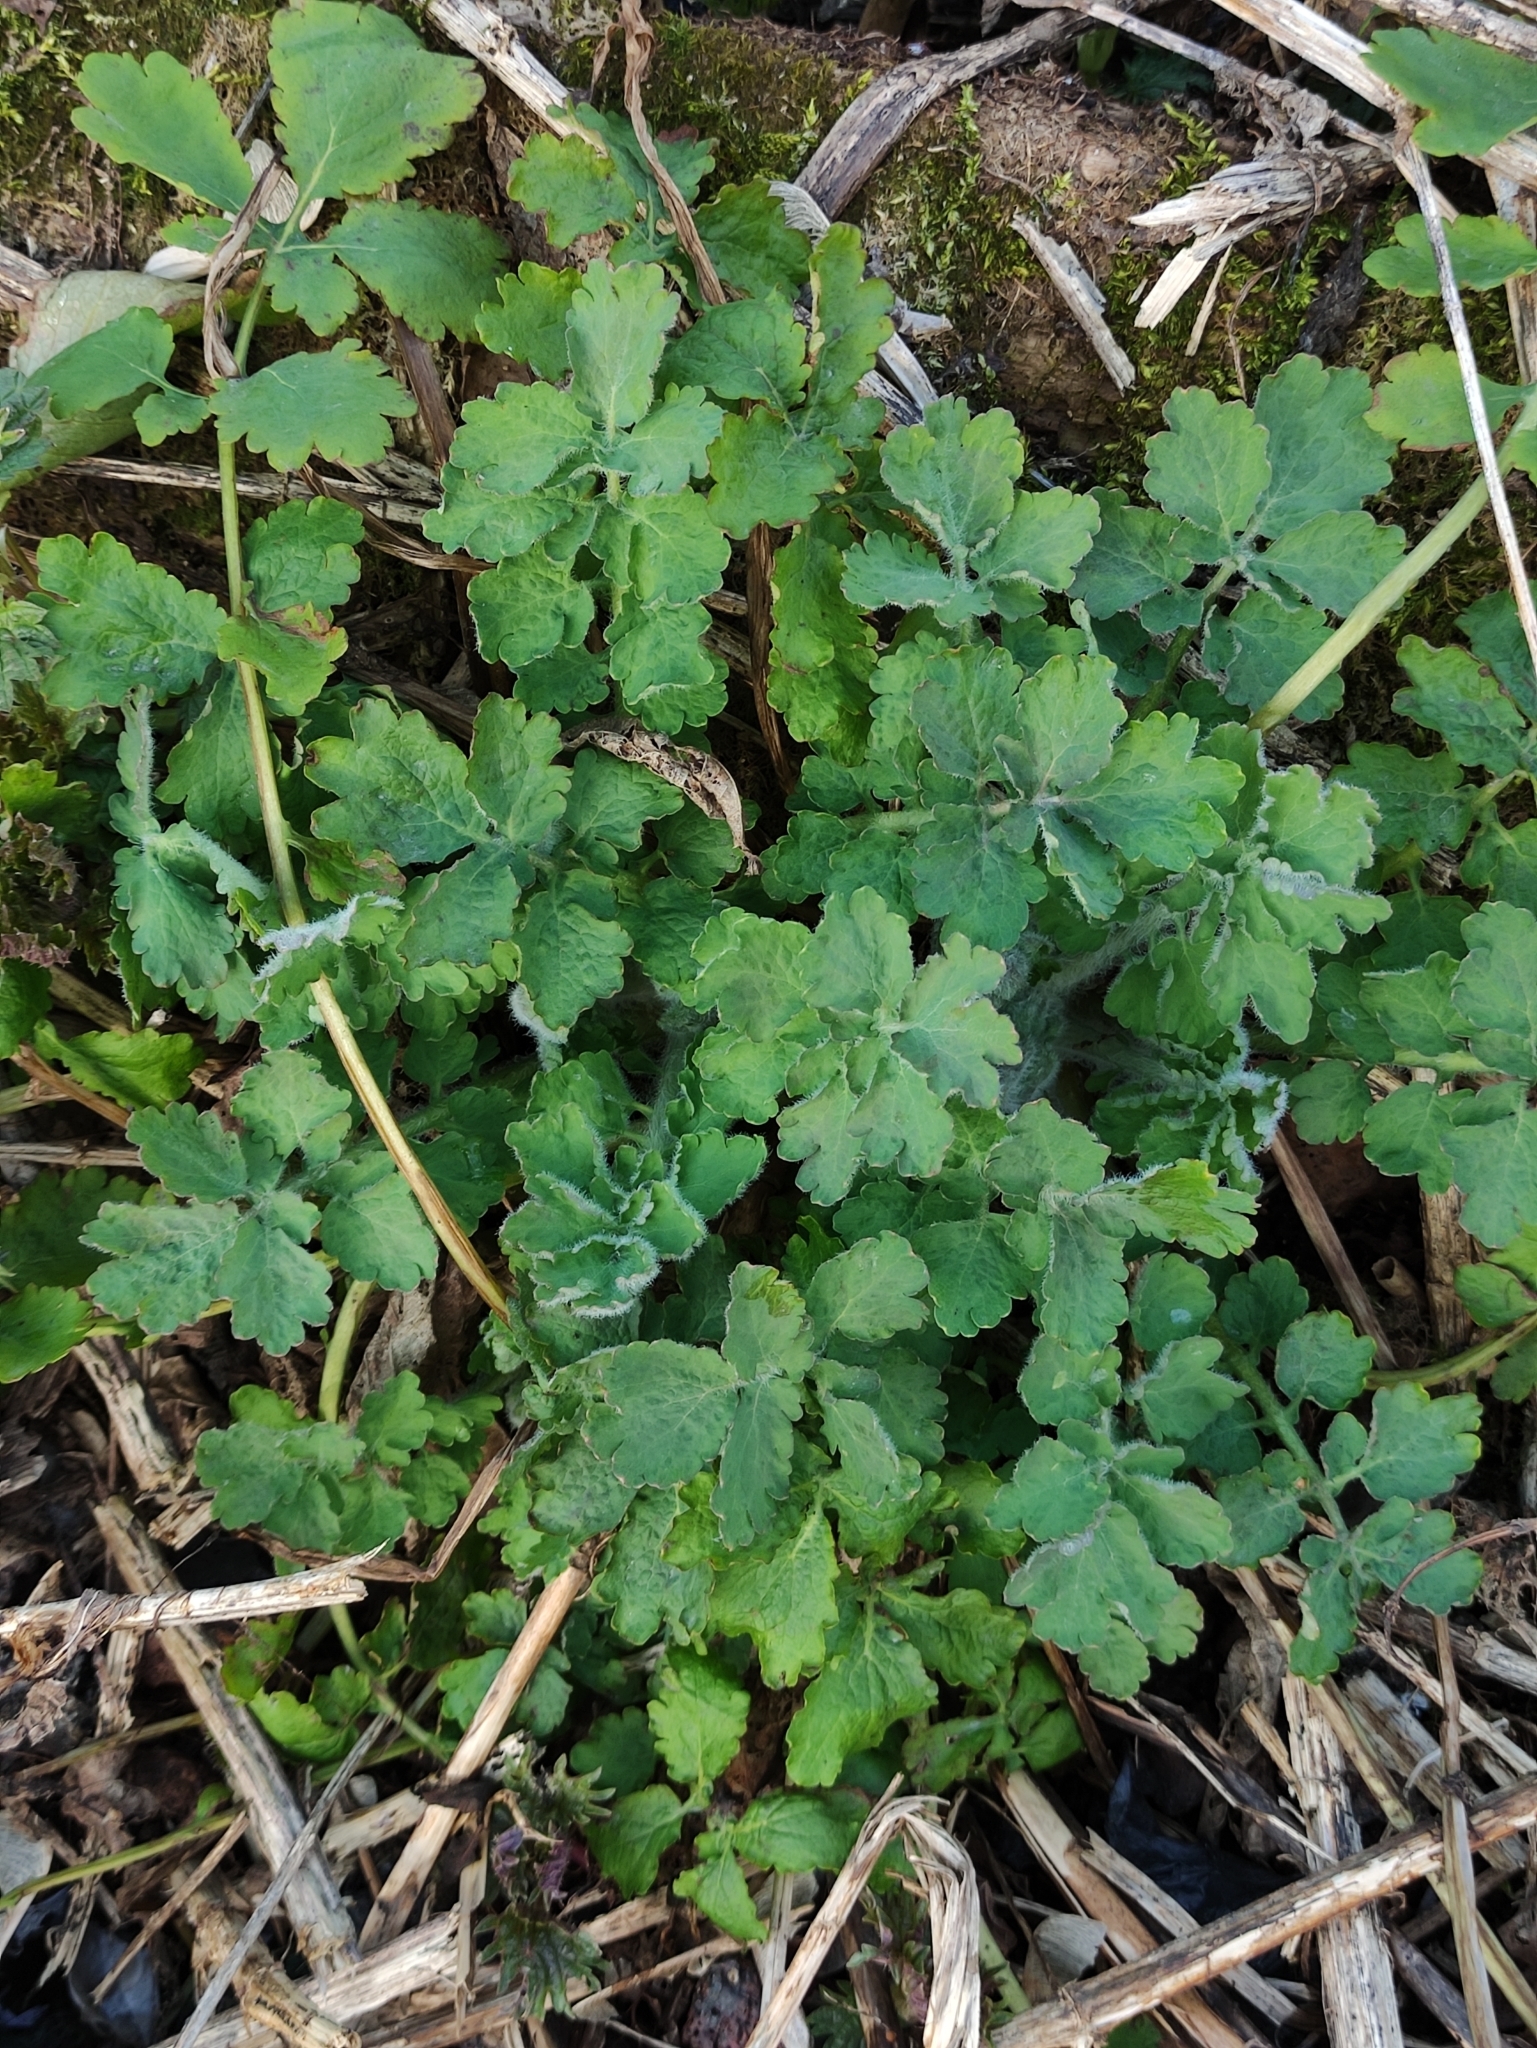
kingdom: Plantae
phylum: Tracheophyta
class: Magnoliopsida
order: Ranunculales
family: Papaveraceae
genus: Chelidonium
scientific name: Chelidonium majus
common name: Greater celandine
